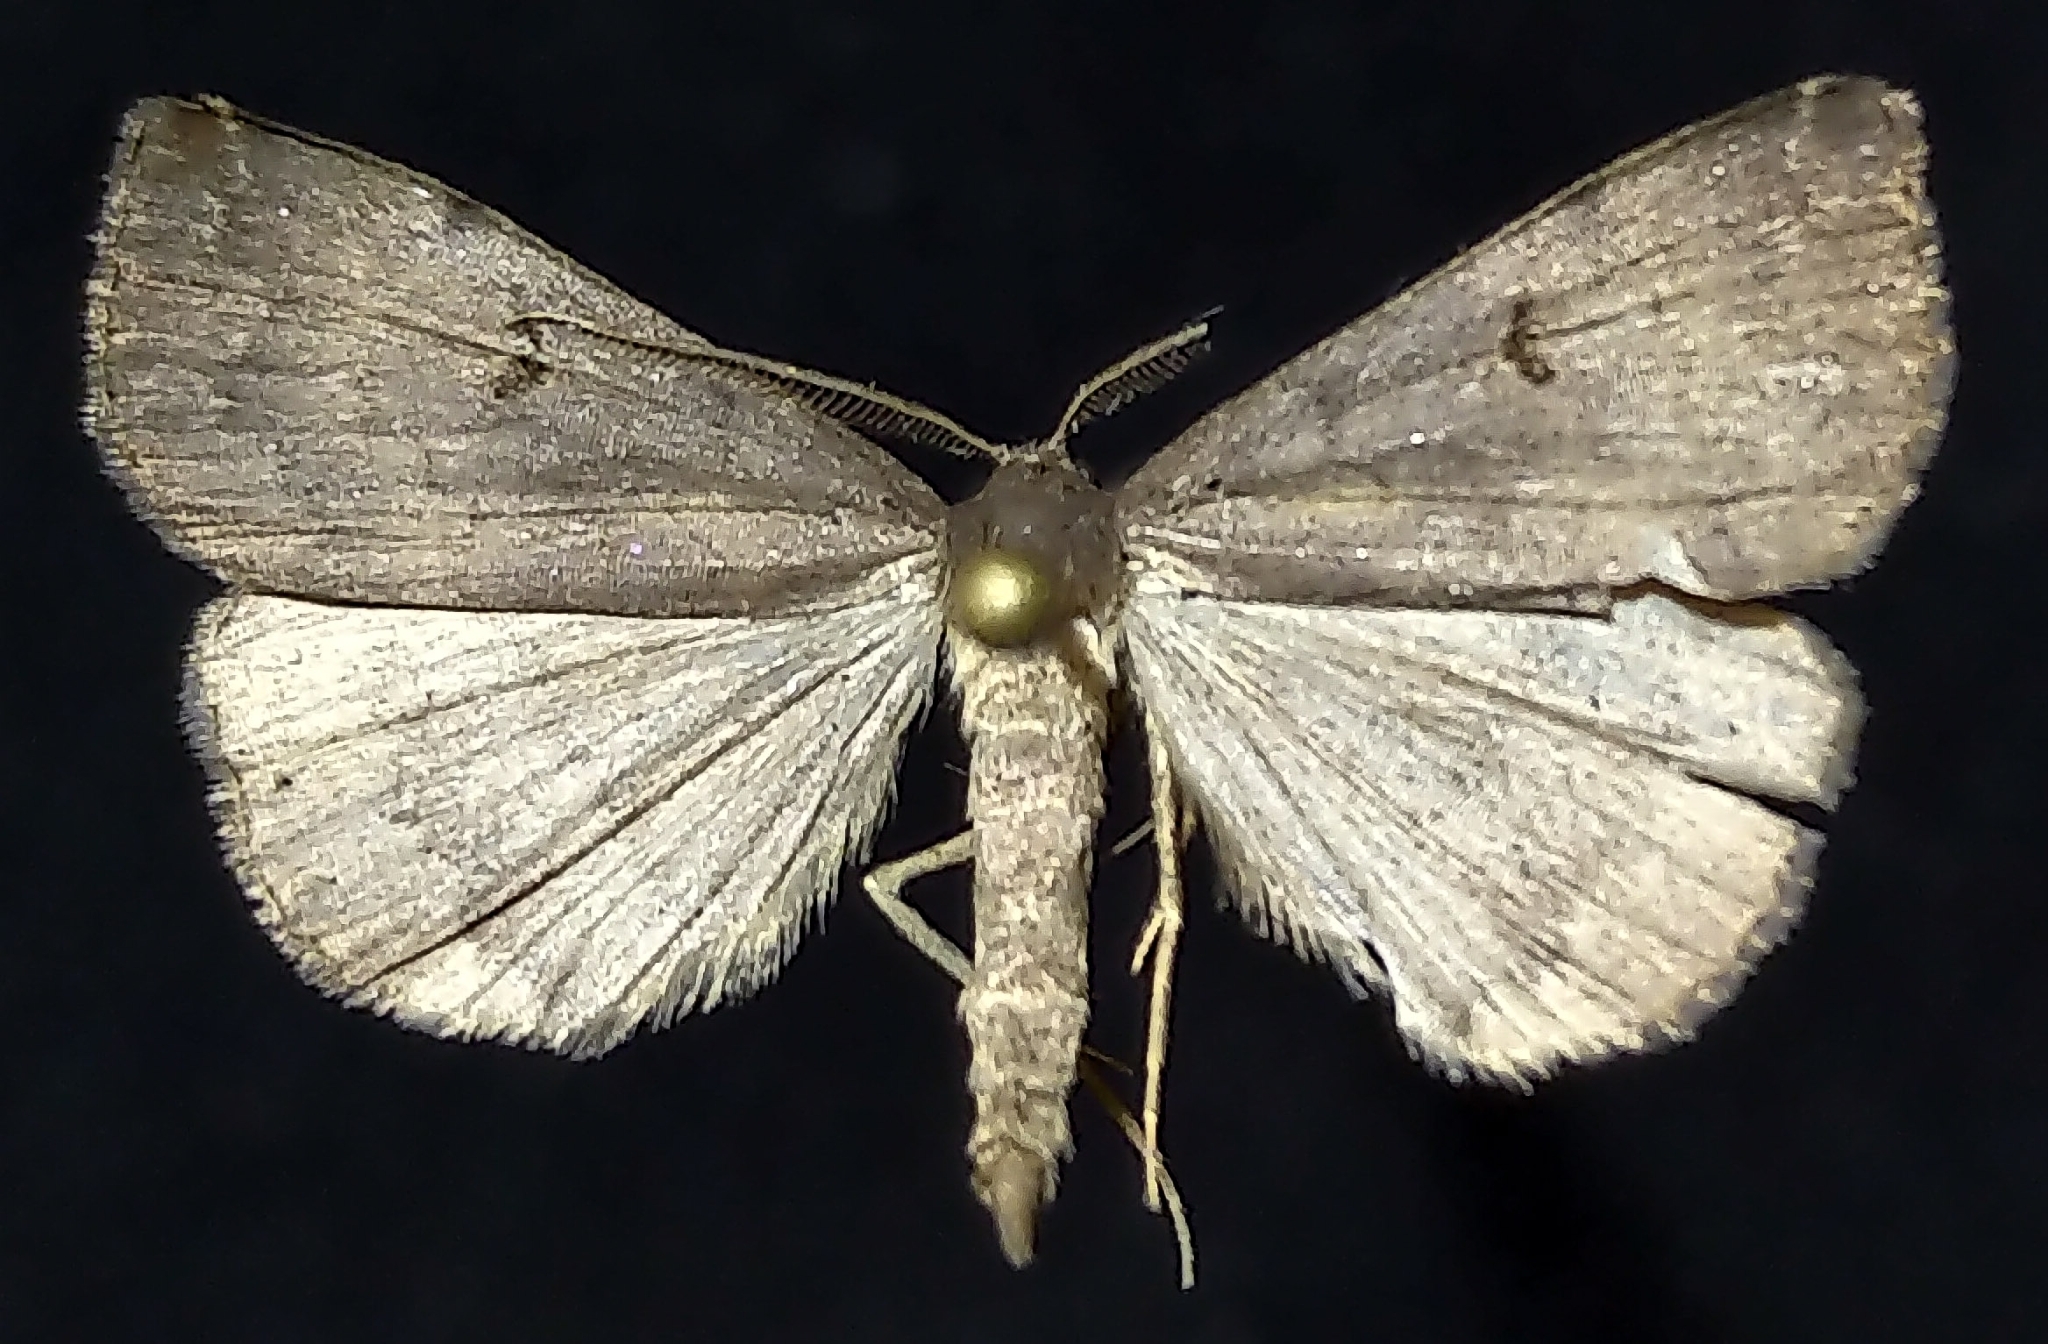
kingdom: Animalia
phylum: Arthropoda
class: Insecta
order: Lepidoptera
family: Erebidae
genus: Phalaenostola
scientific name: Phalaenostola hanhami
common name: Hanham's owlet
